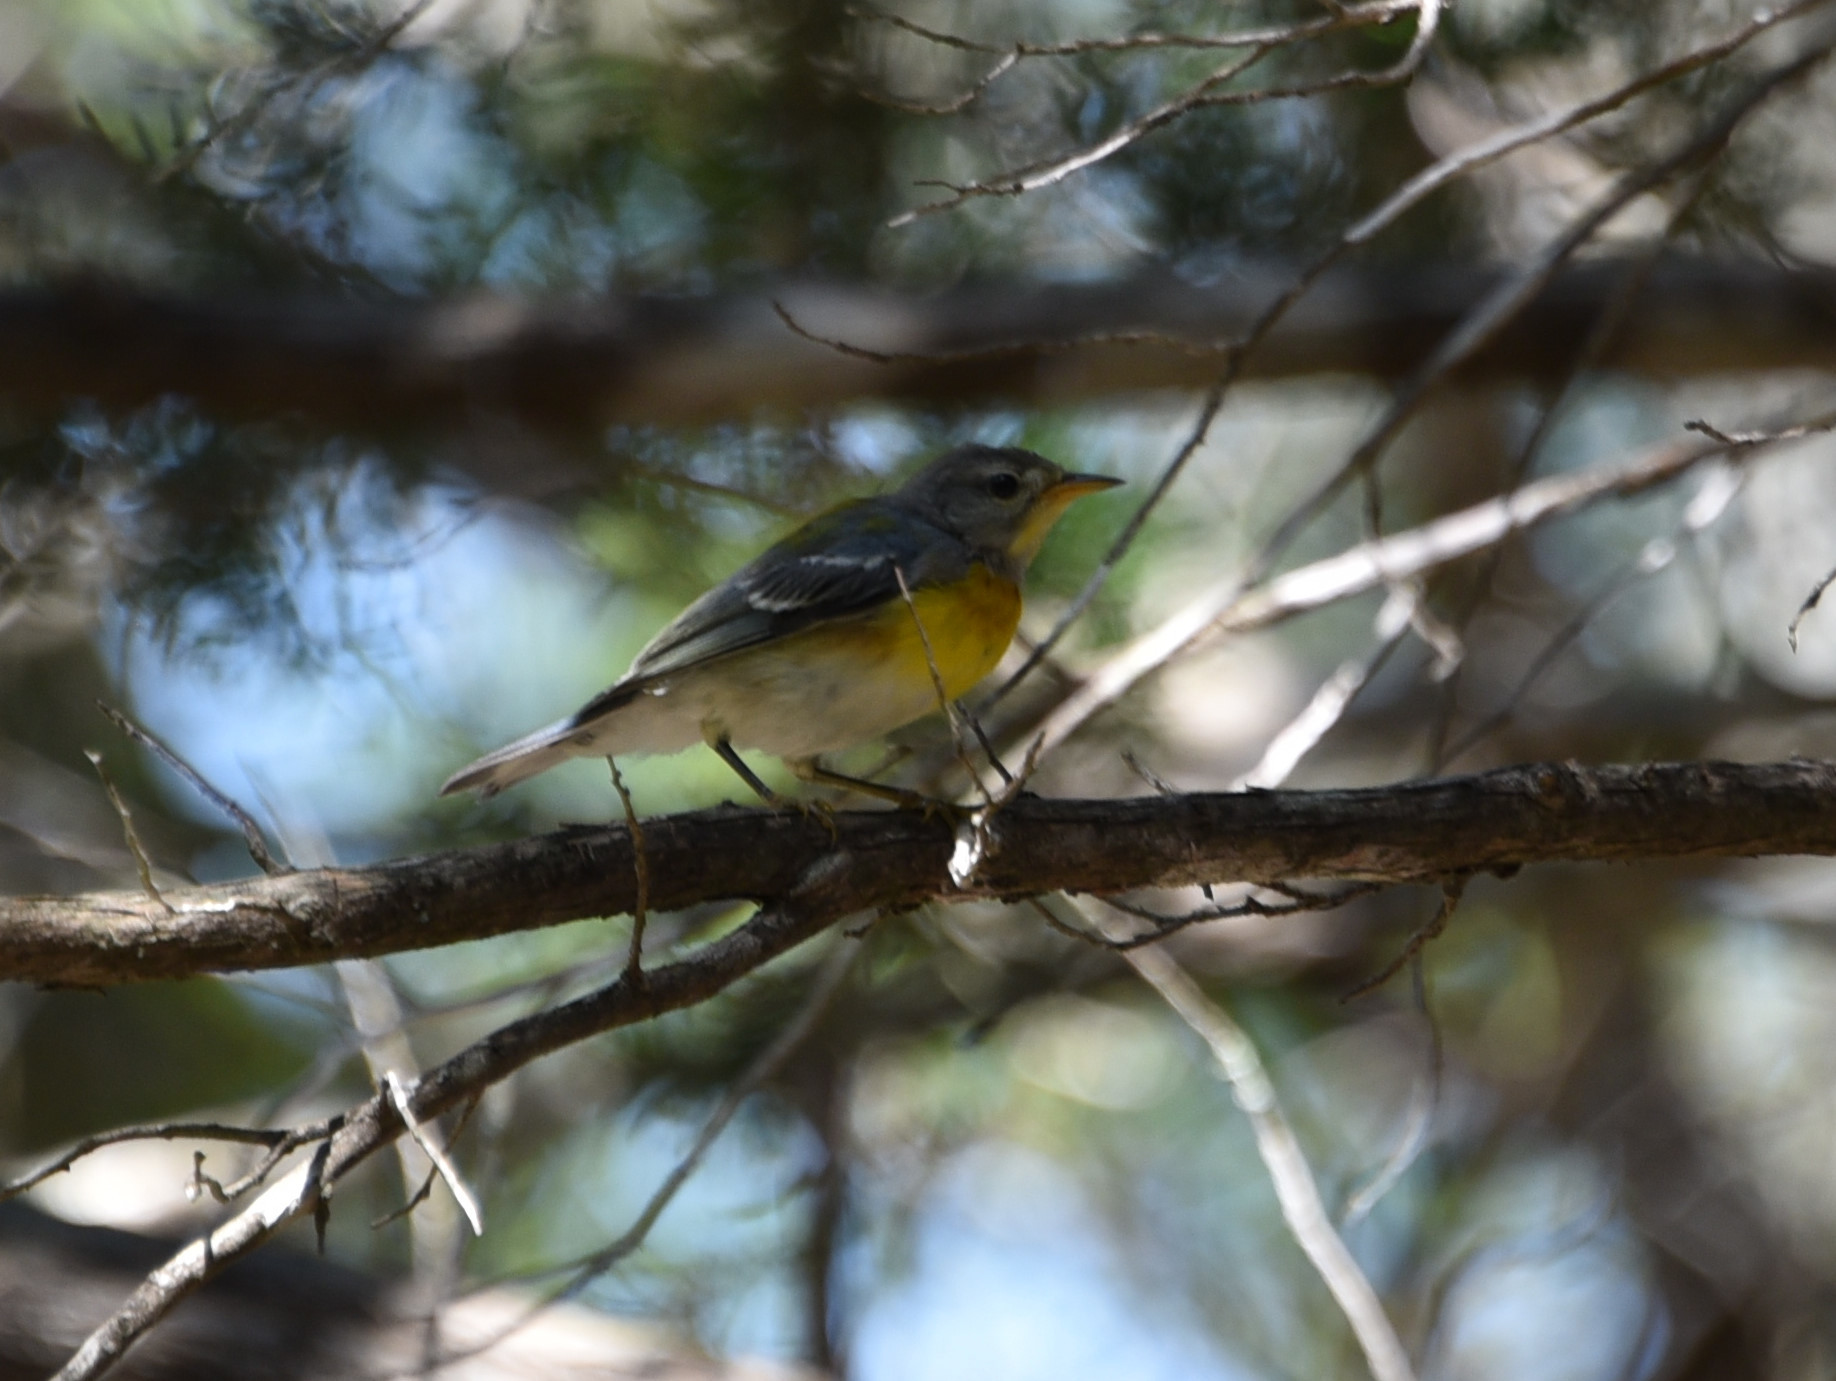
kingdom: Animalia
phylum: Chordata
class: Aves
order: Passeriformes
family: Parulidae
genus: Setophaga
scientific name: Setophaga americana
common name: Northern parula
